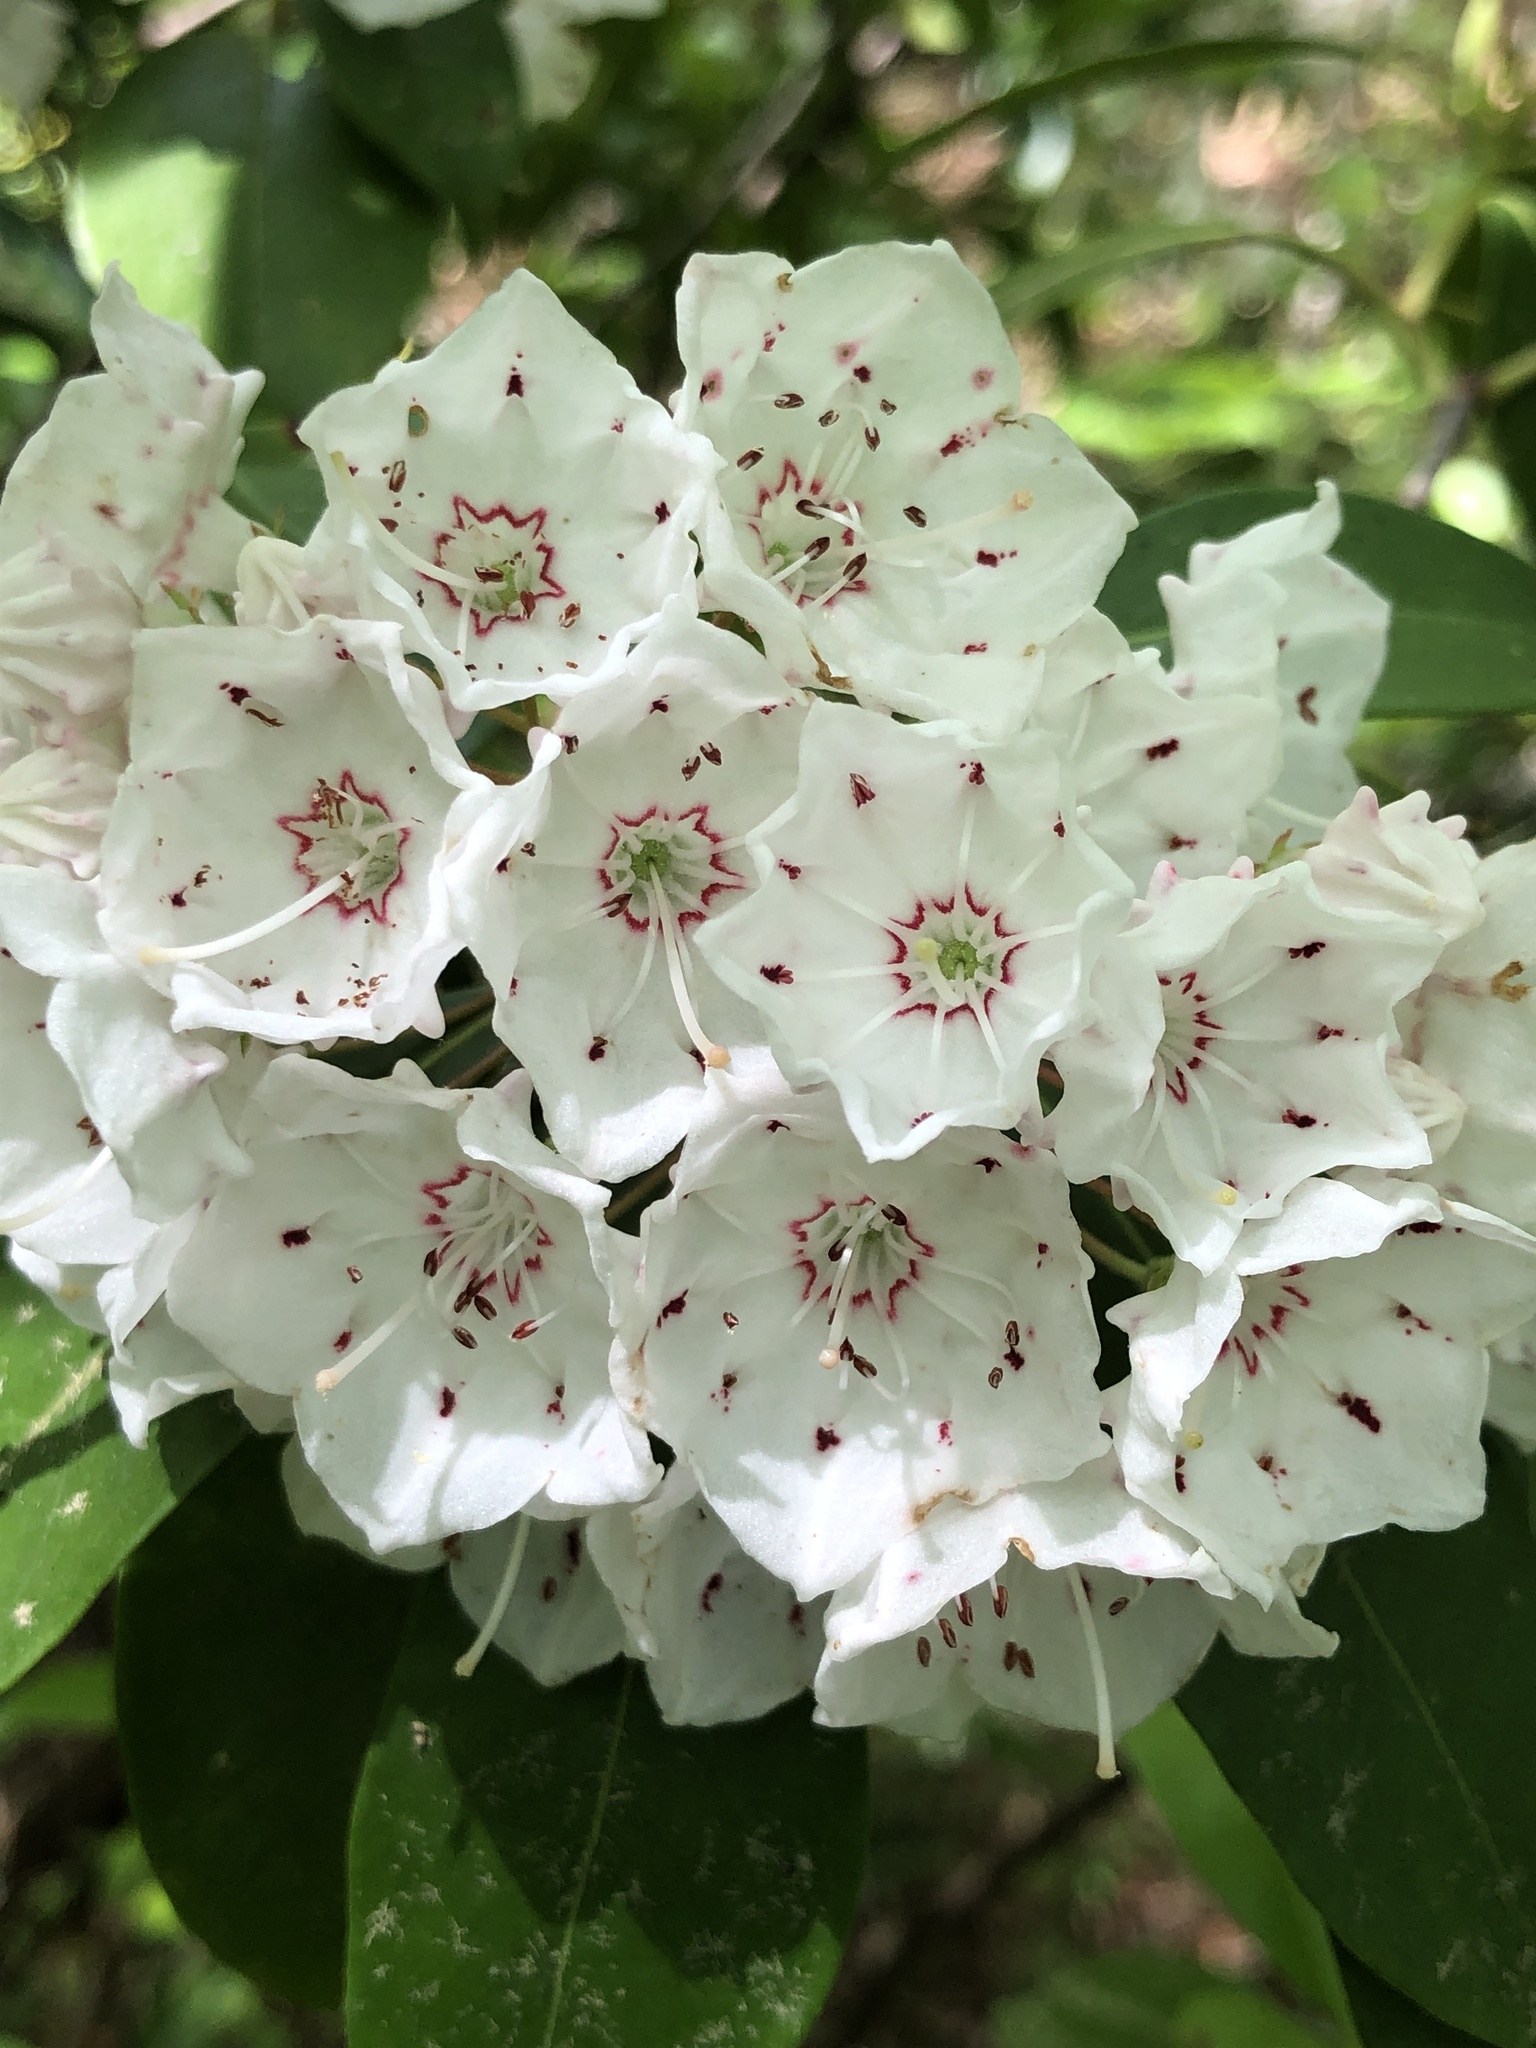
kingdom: Plantae
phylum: Tracheophyta
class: Magnoliopsida
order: Ericales
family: Ericaceae
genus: Kalmia
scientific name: Kalmia latifolia
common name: Mountain-laurel
